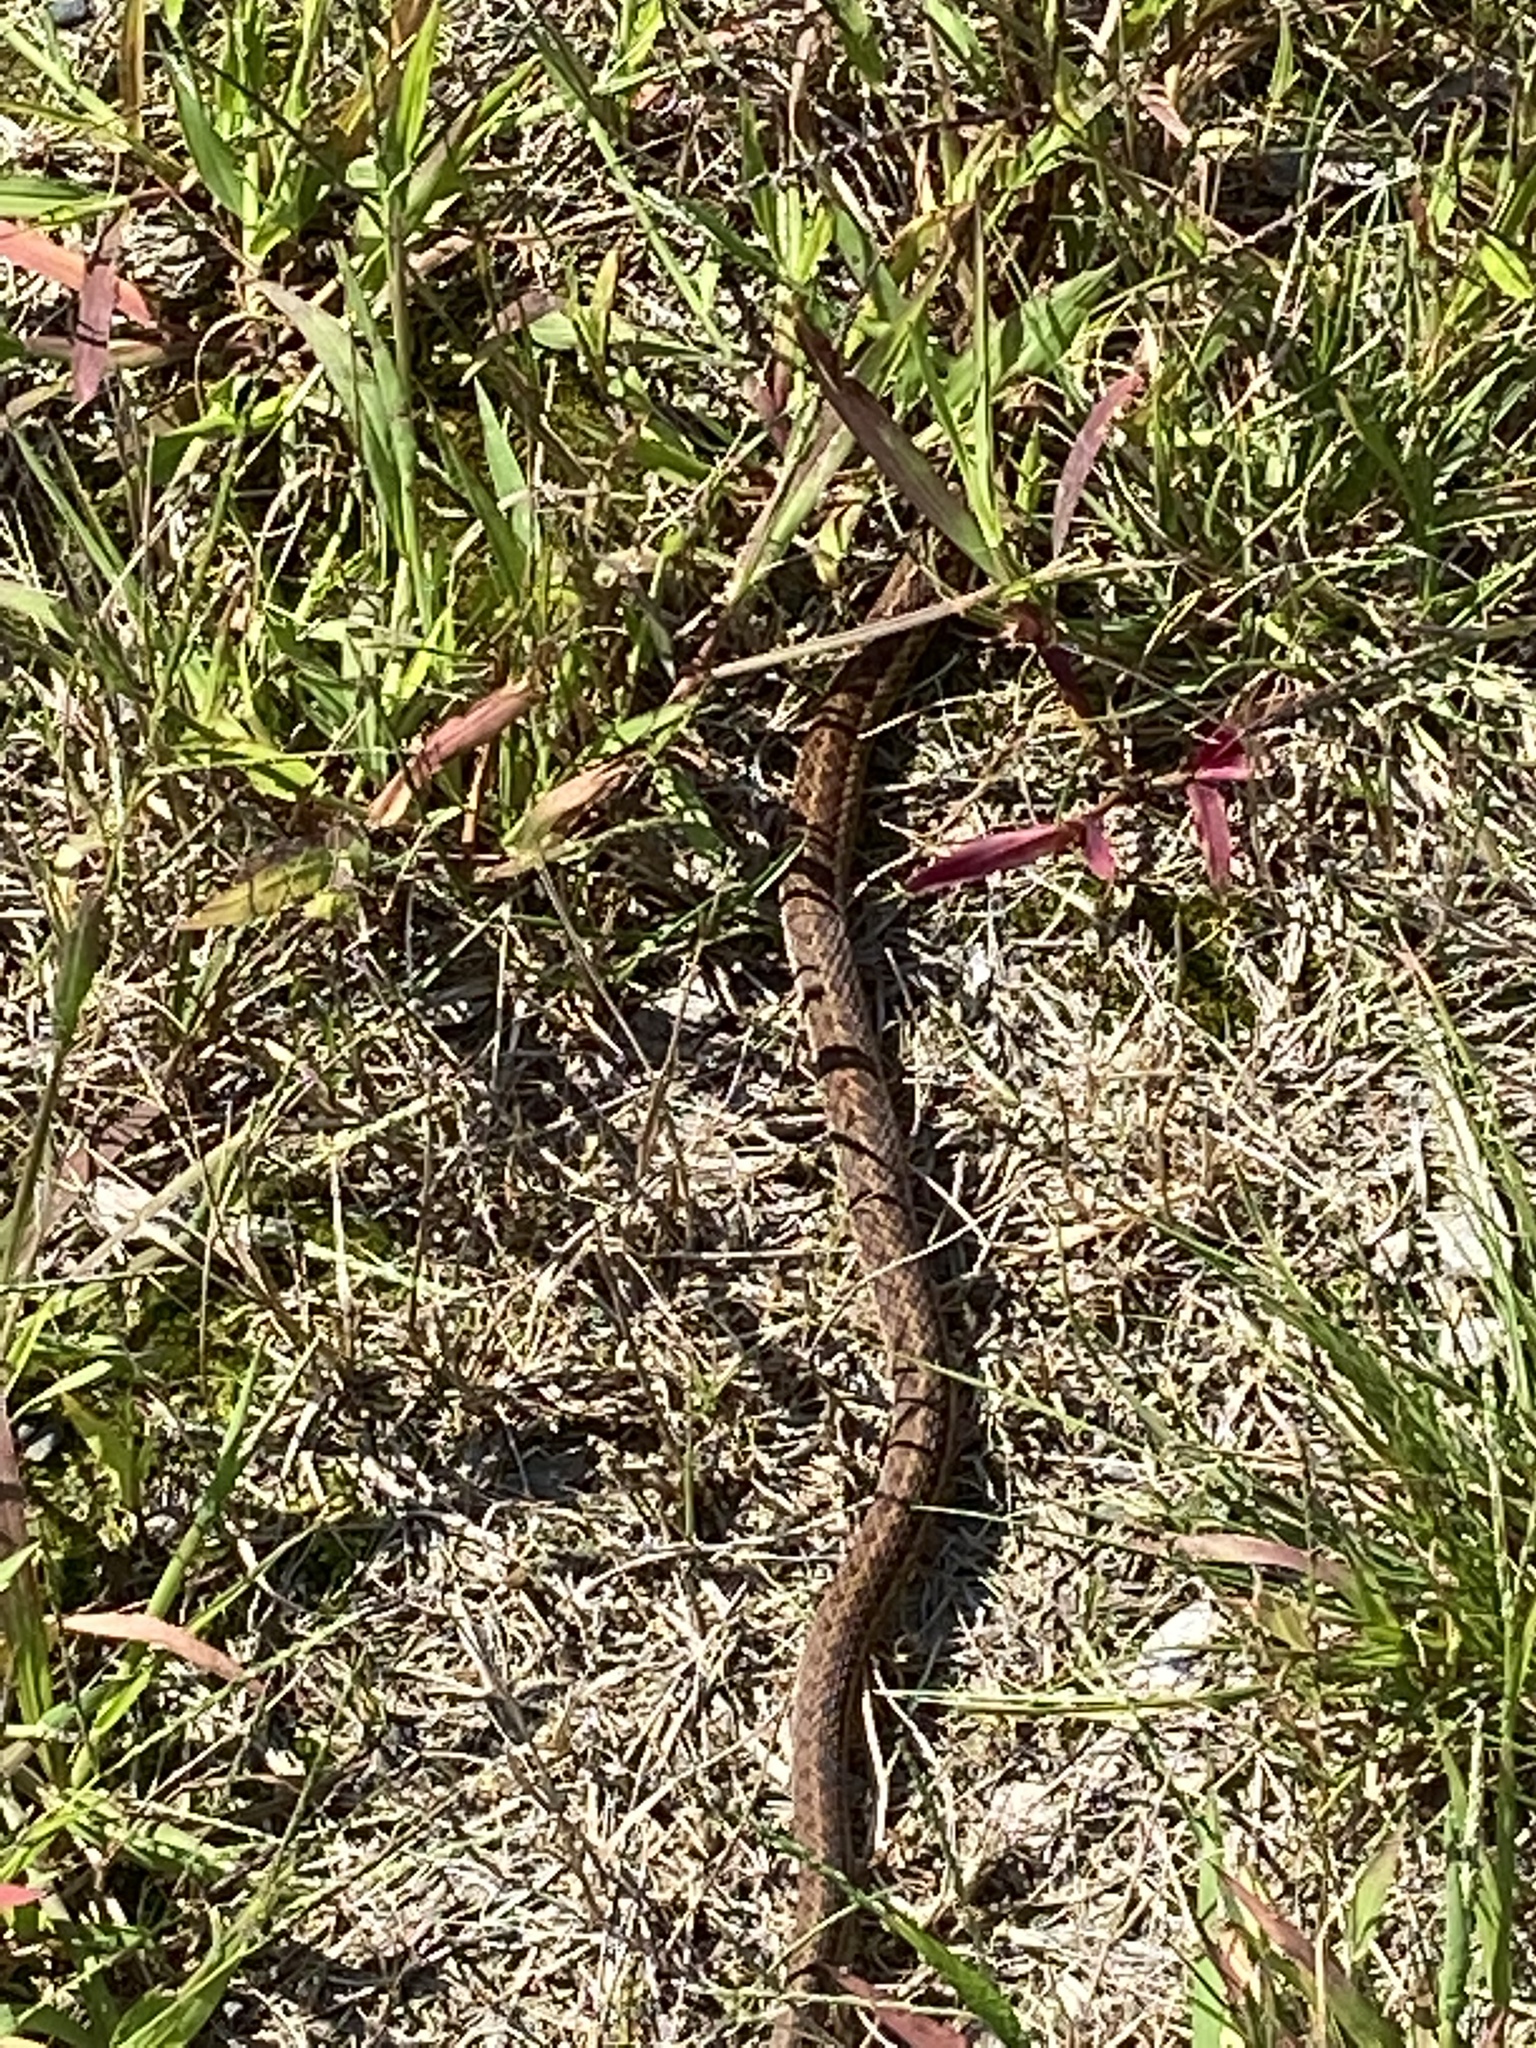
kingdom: Animalia
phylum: Chordata
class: Squamata
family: Colubridae
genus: Thamnophis
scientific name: Thamnophis sirtalis
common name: Common garter snake
